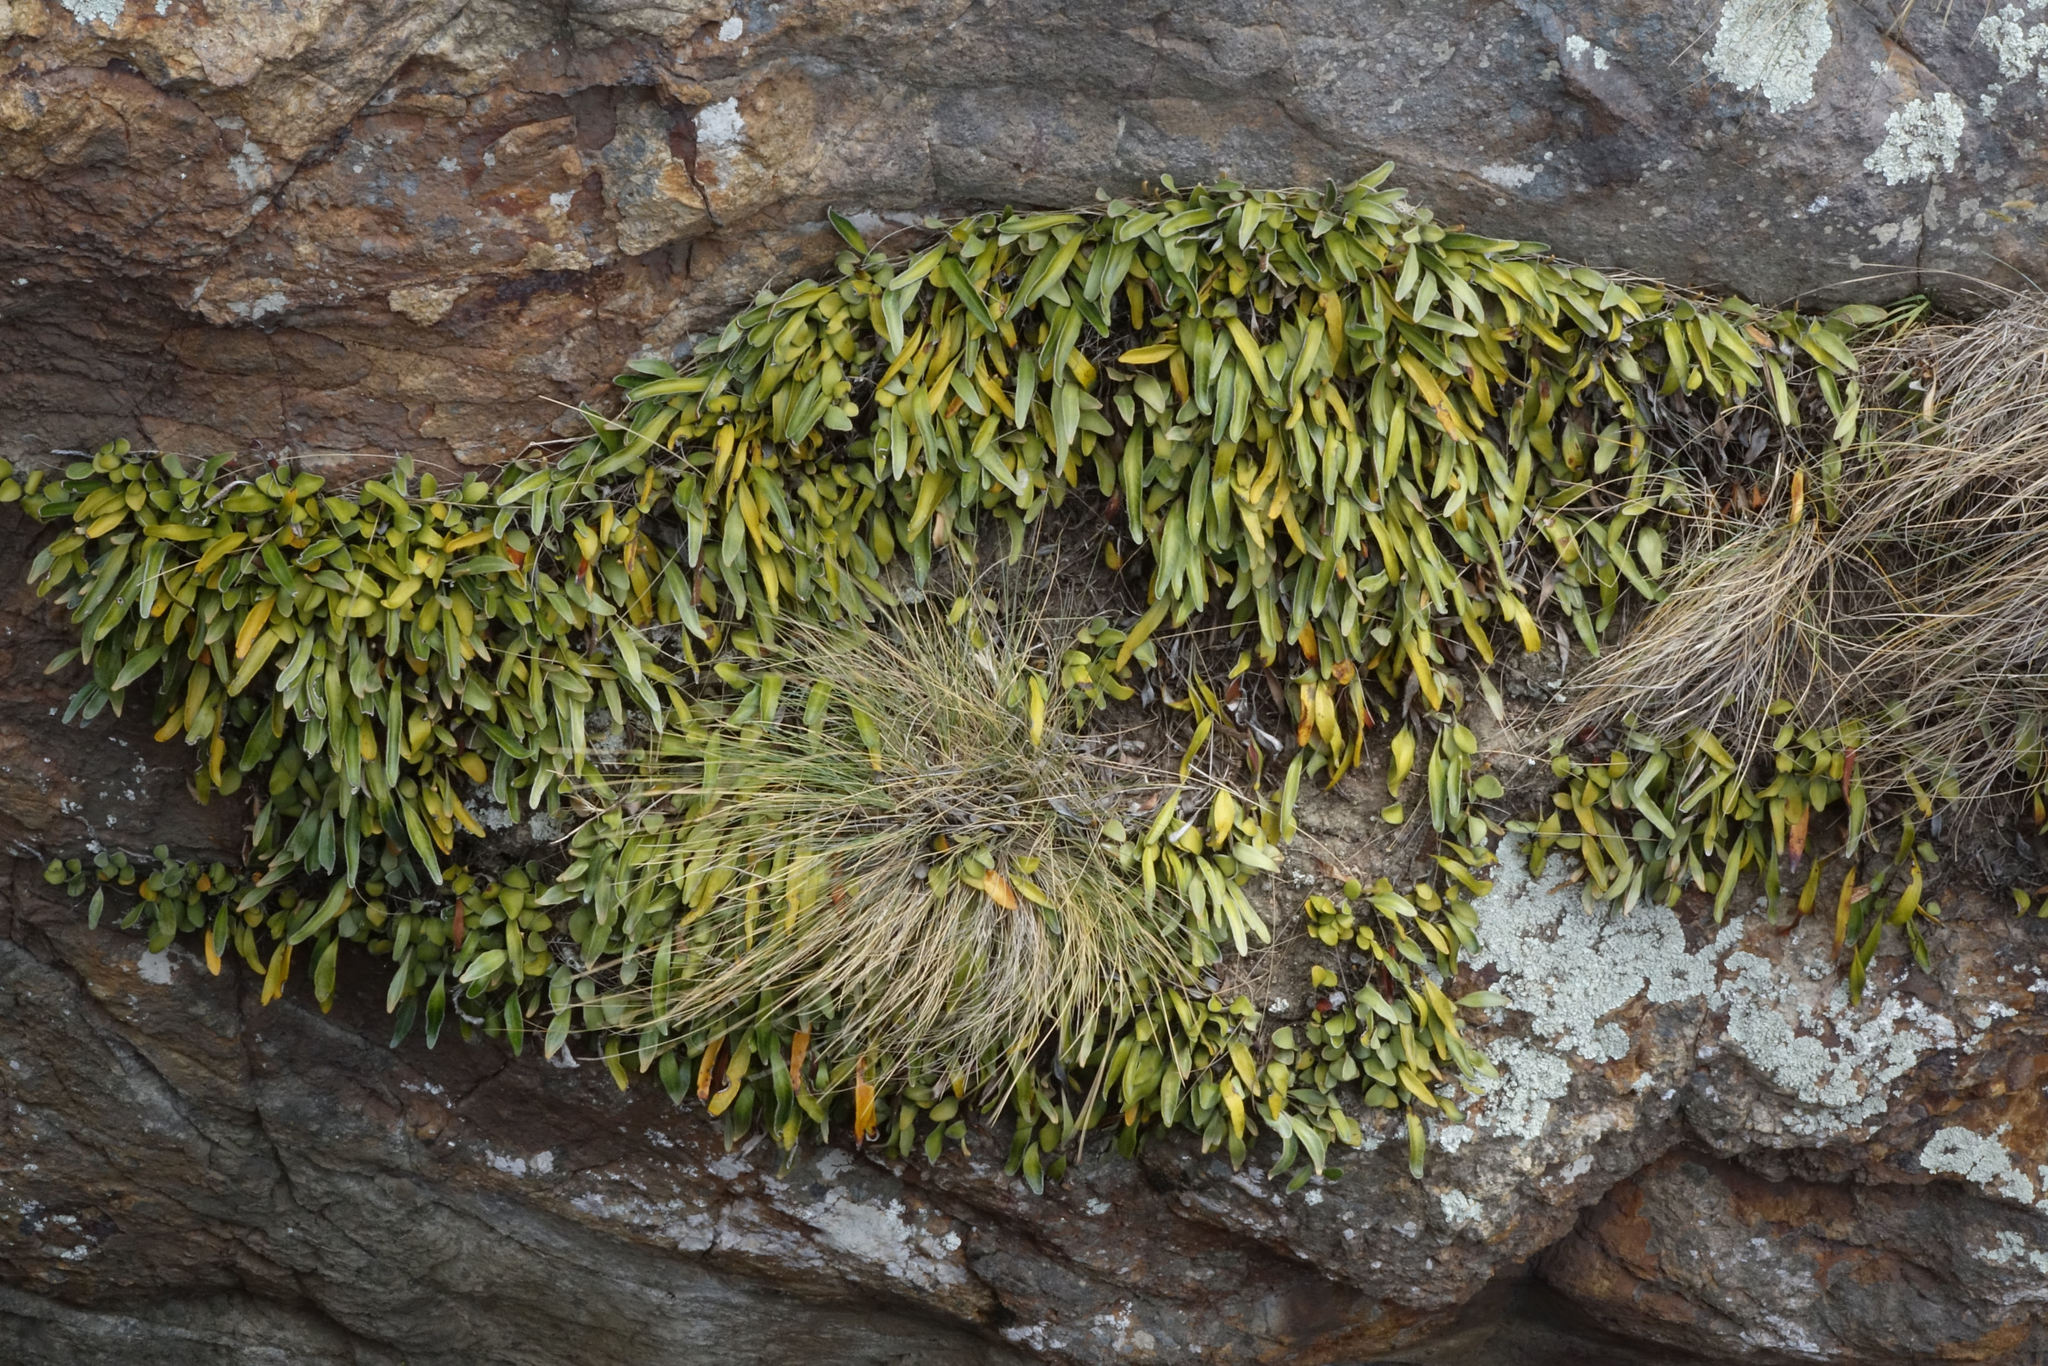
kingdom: Plantae
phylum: Tracheophyta
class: Polypodiopsida
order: Polypodiales
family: Polypodiaceae
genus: Pyrrosia
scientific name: Pyrrosia eleagnifolia
